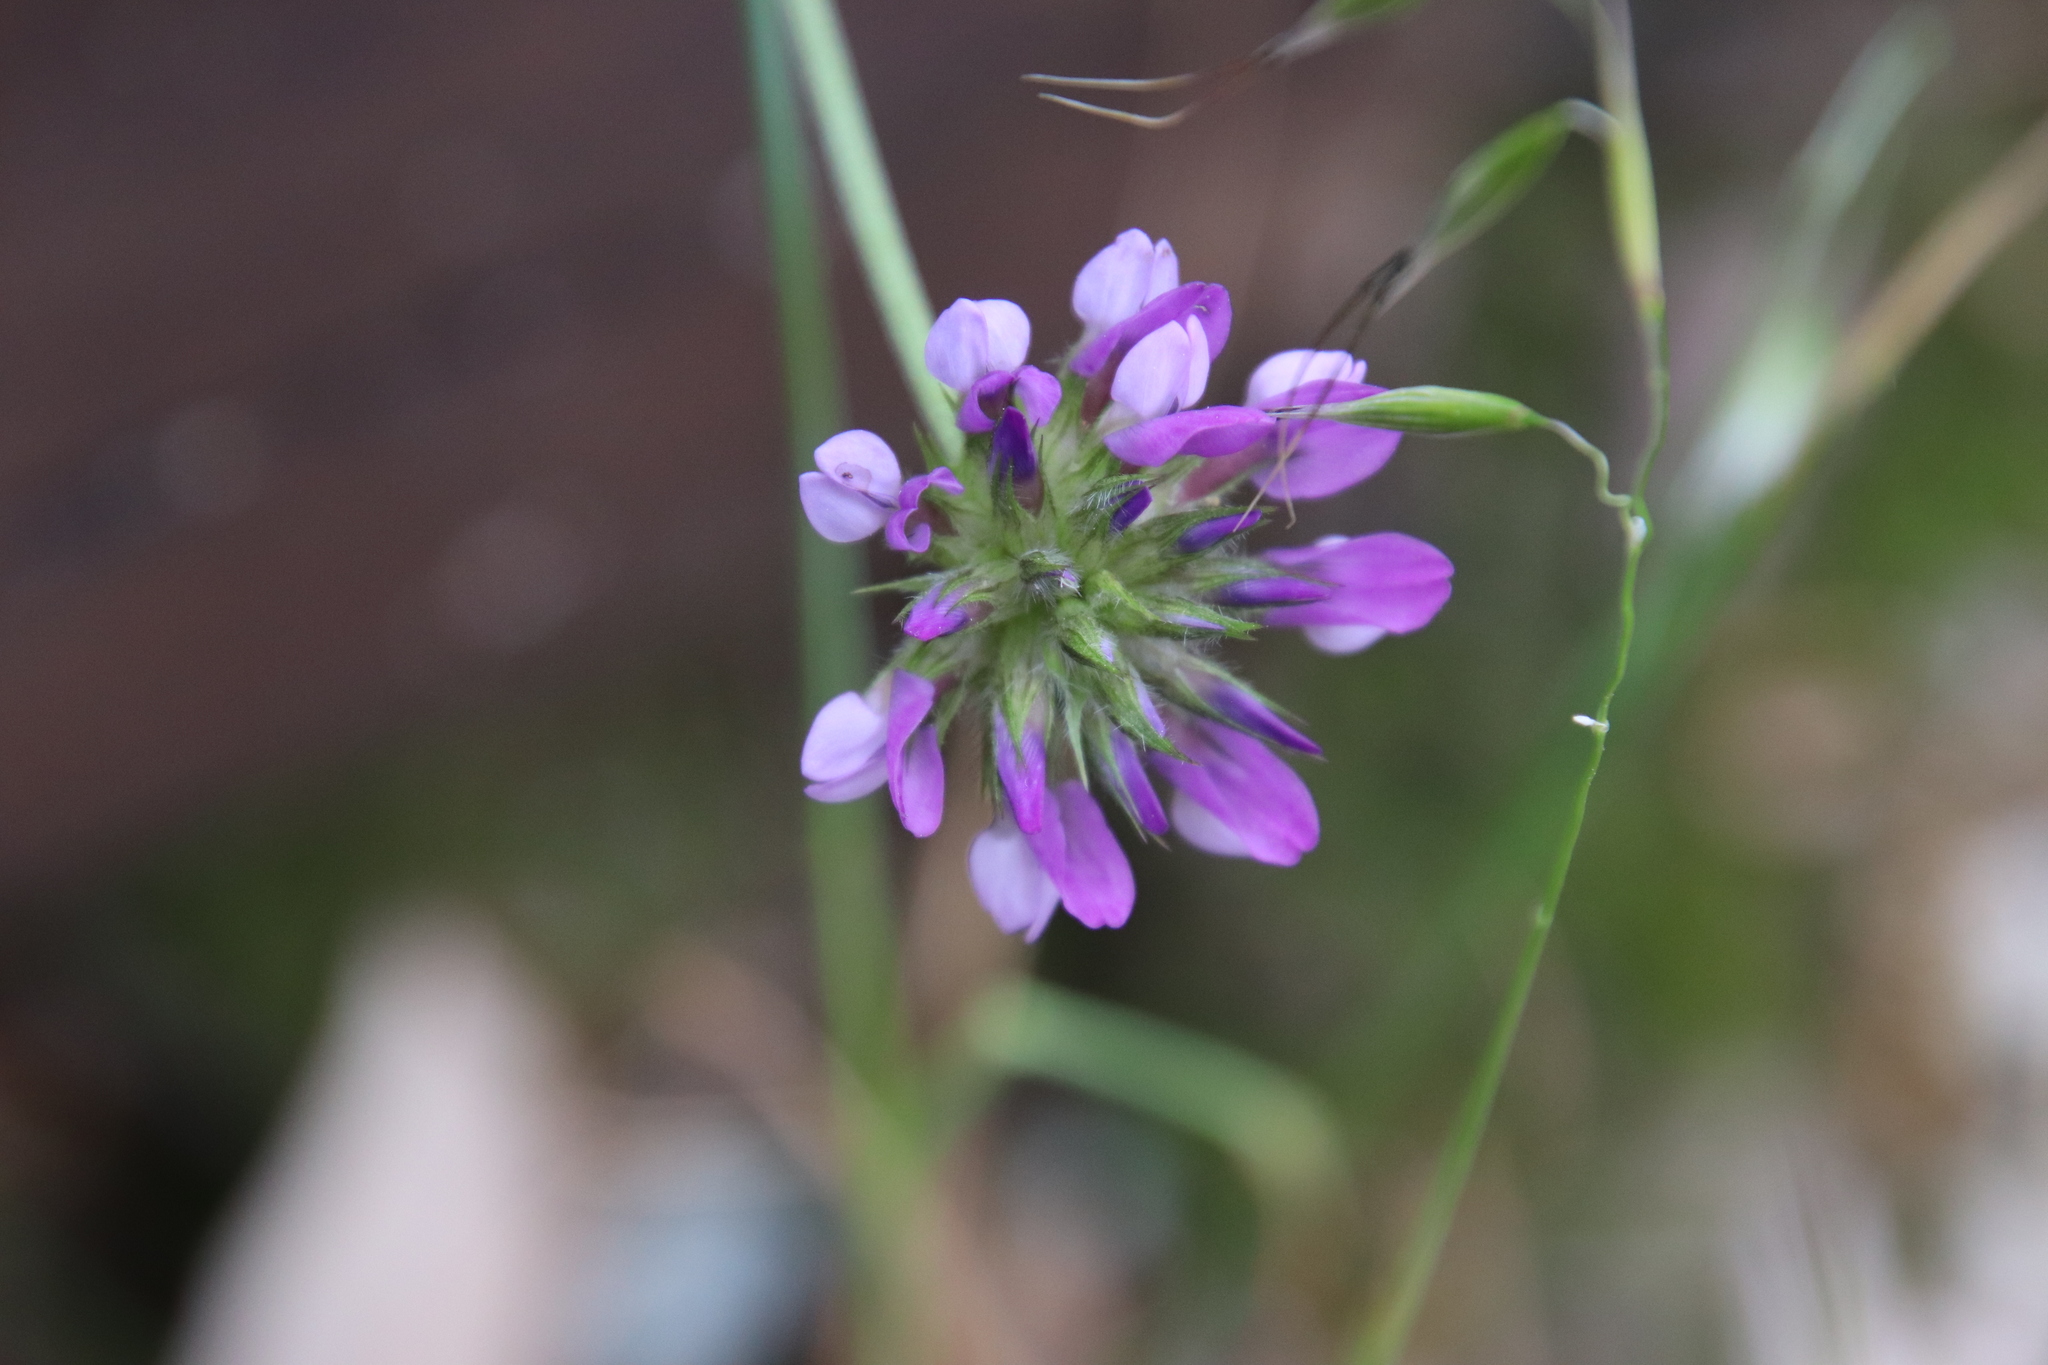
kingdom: Plantae
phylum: Tracheophyta
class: Magnoliopsida
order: Fabales
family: Fabaceae
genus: Bituminaria
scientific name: Bituminaria bituminosa
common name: Arabian pea
